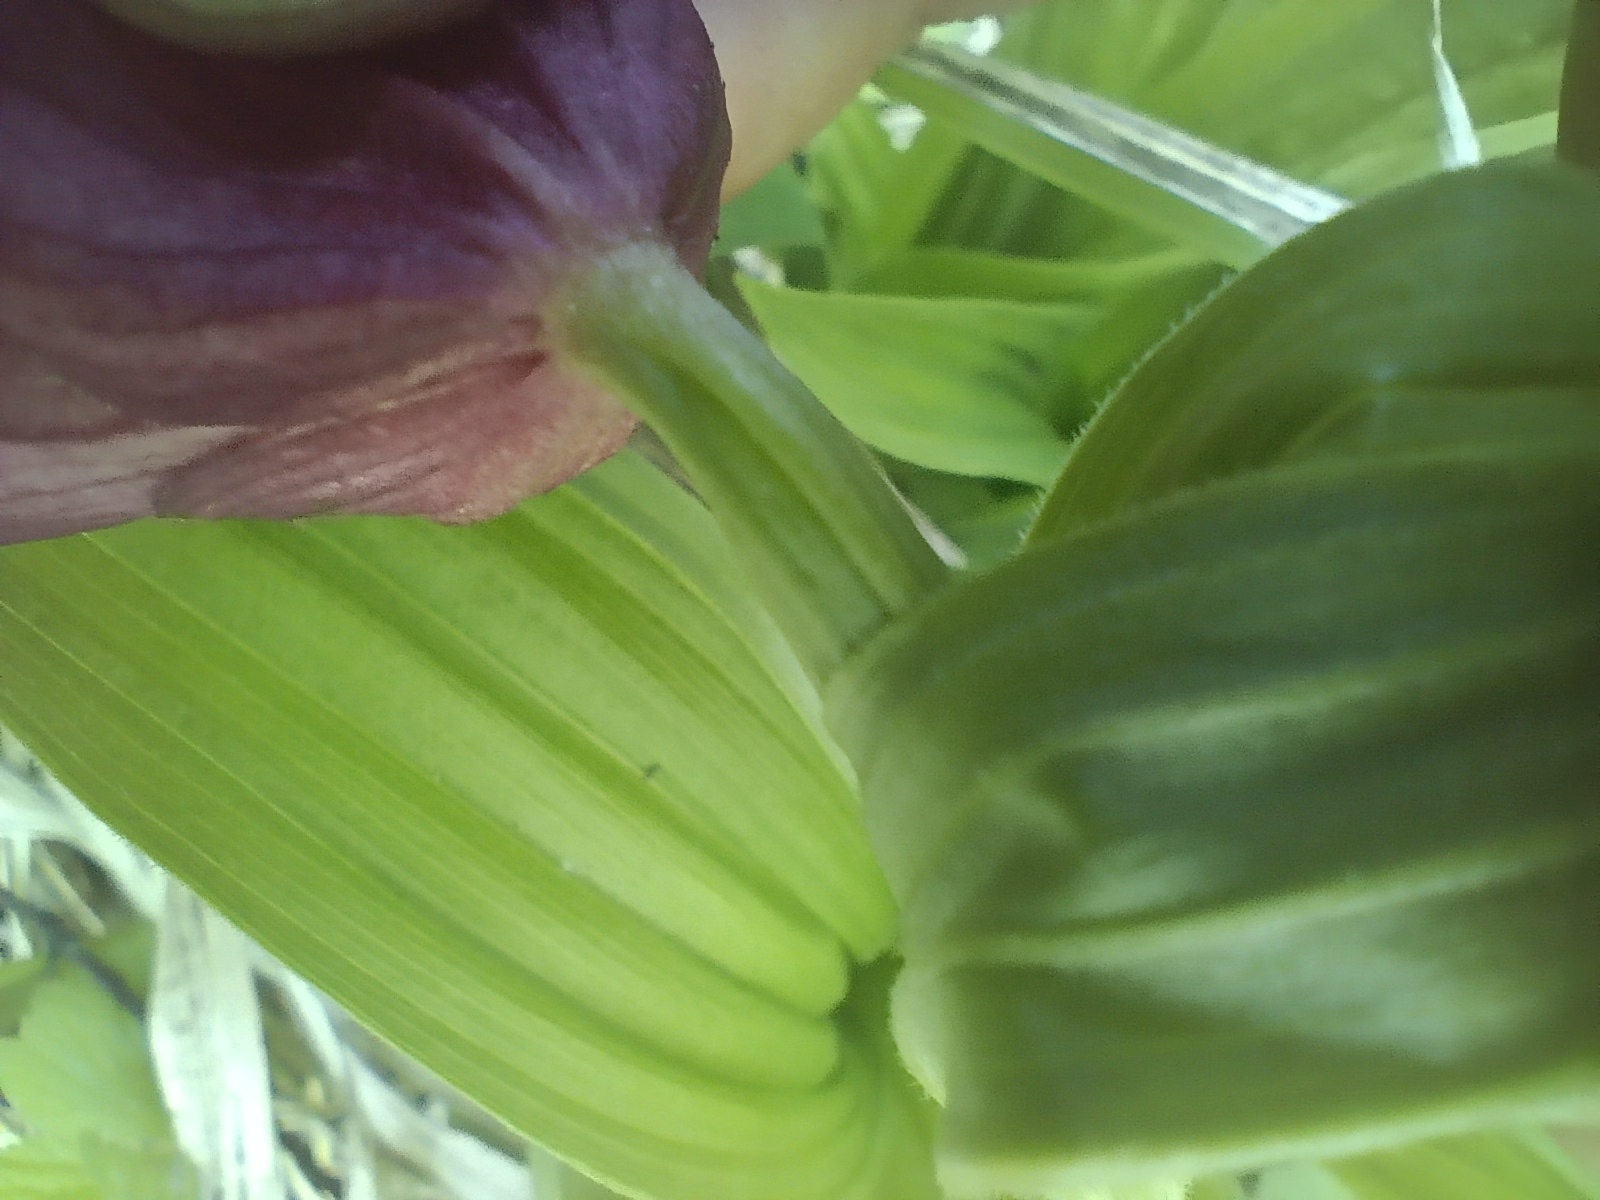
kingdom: Plantae
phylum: Tracheophyta
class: Liliopsida
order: Asparagales
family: Orchidaceae
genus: Cypripedium
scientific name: Cypripedium macranthos
